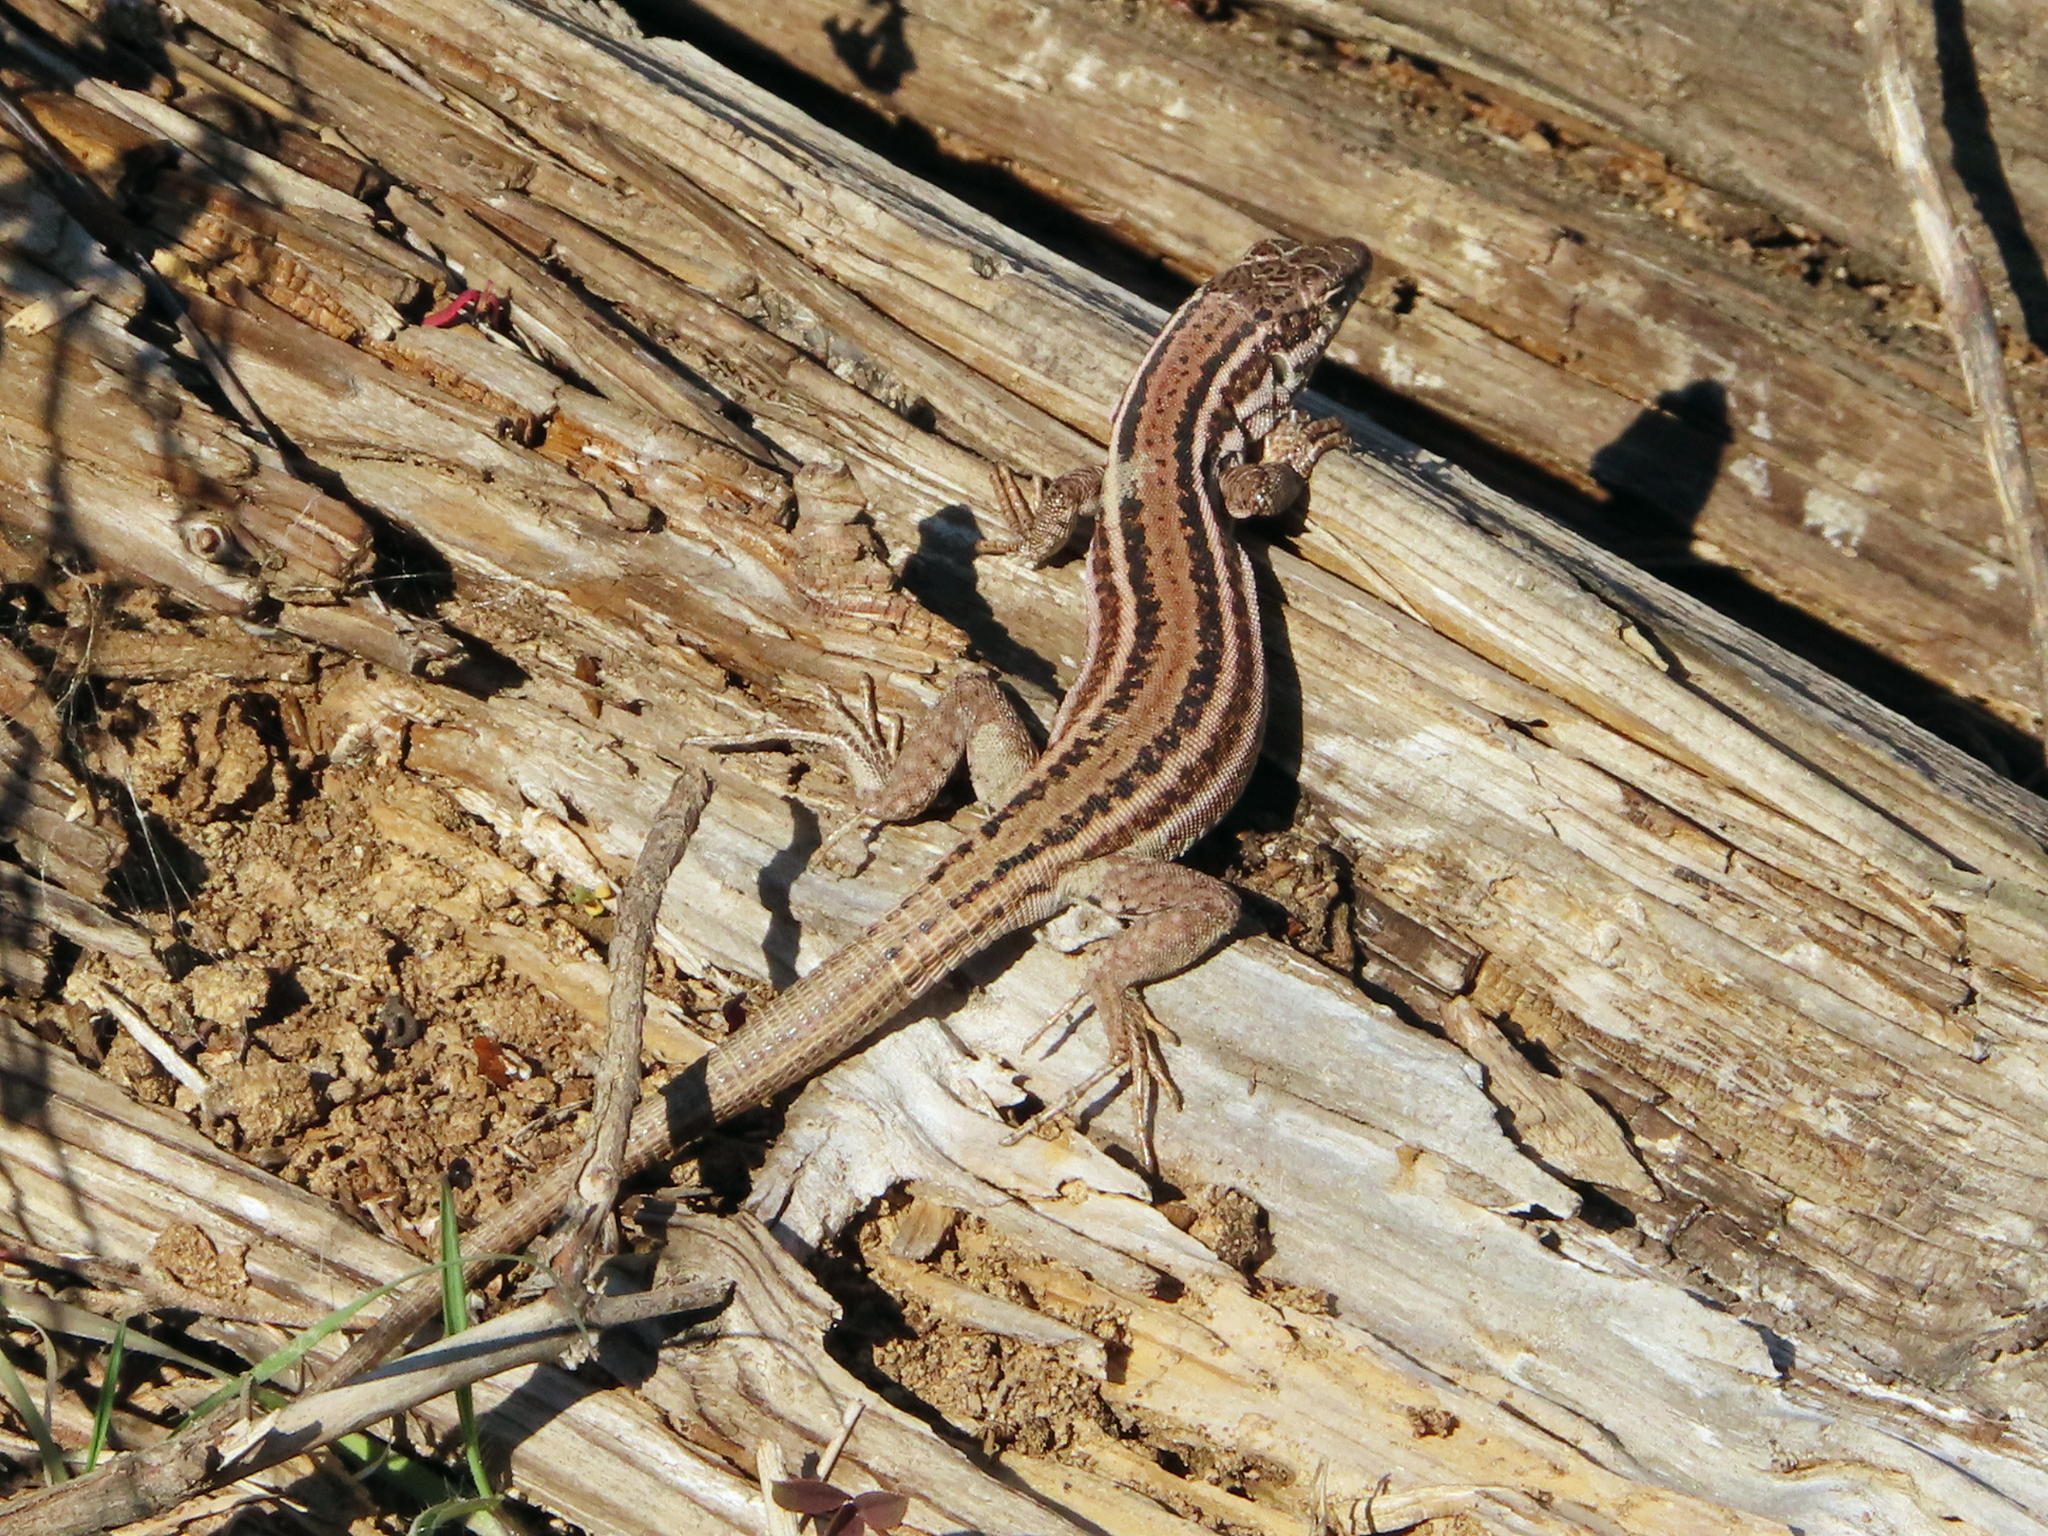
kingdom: Animalia
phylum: Chordata
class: Squamata
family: Lacertidae
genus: Podarcis
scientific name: Podarcis erhardii
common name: Erhard's wall lizard
